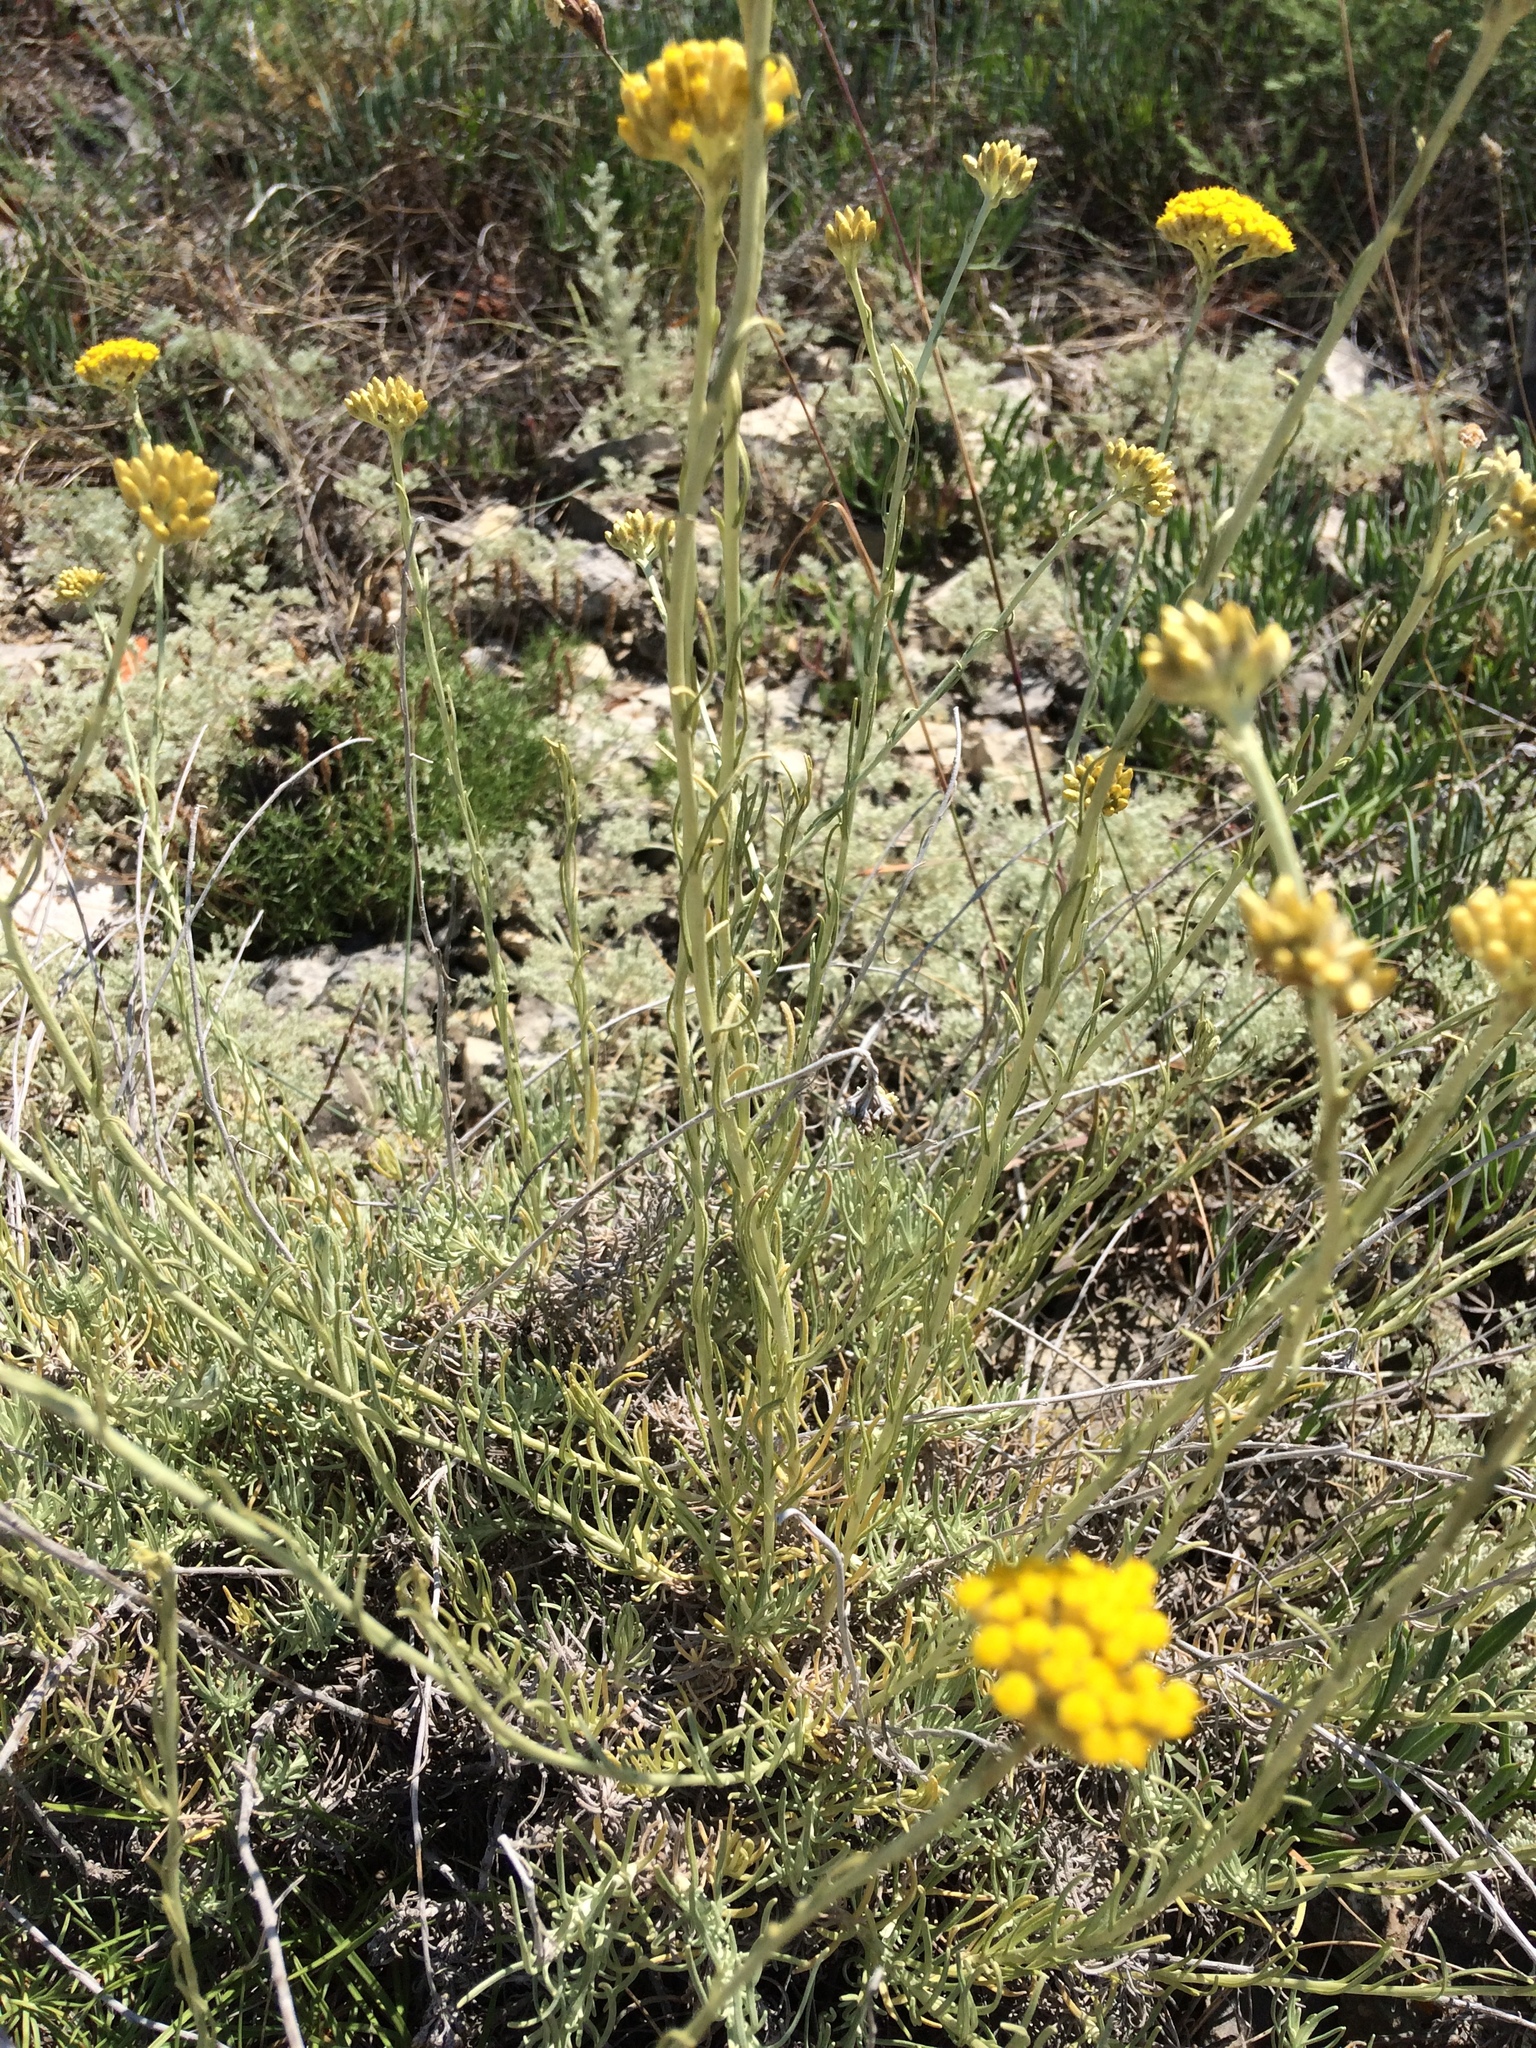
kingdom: Plantae
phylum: Tracheophyta
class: Magnoliopsida
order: Asterales
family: Asteraceae
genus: Helichrysum
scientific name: Helichrysum italicum
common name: Curryplant
